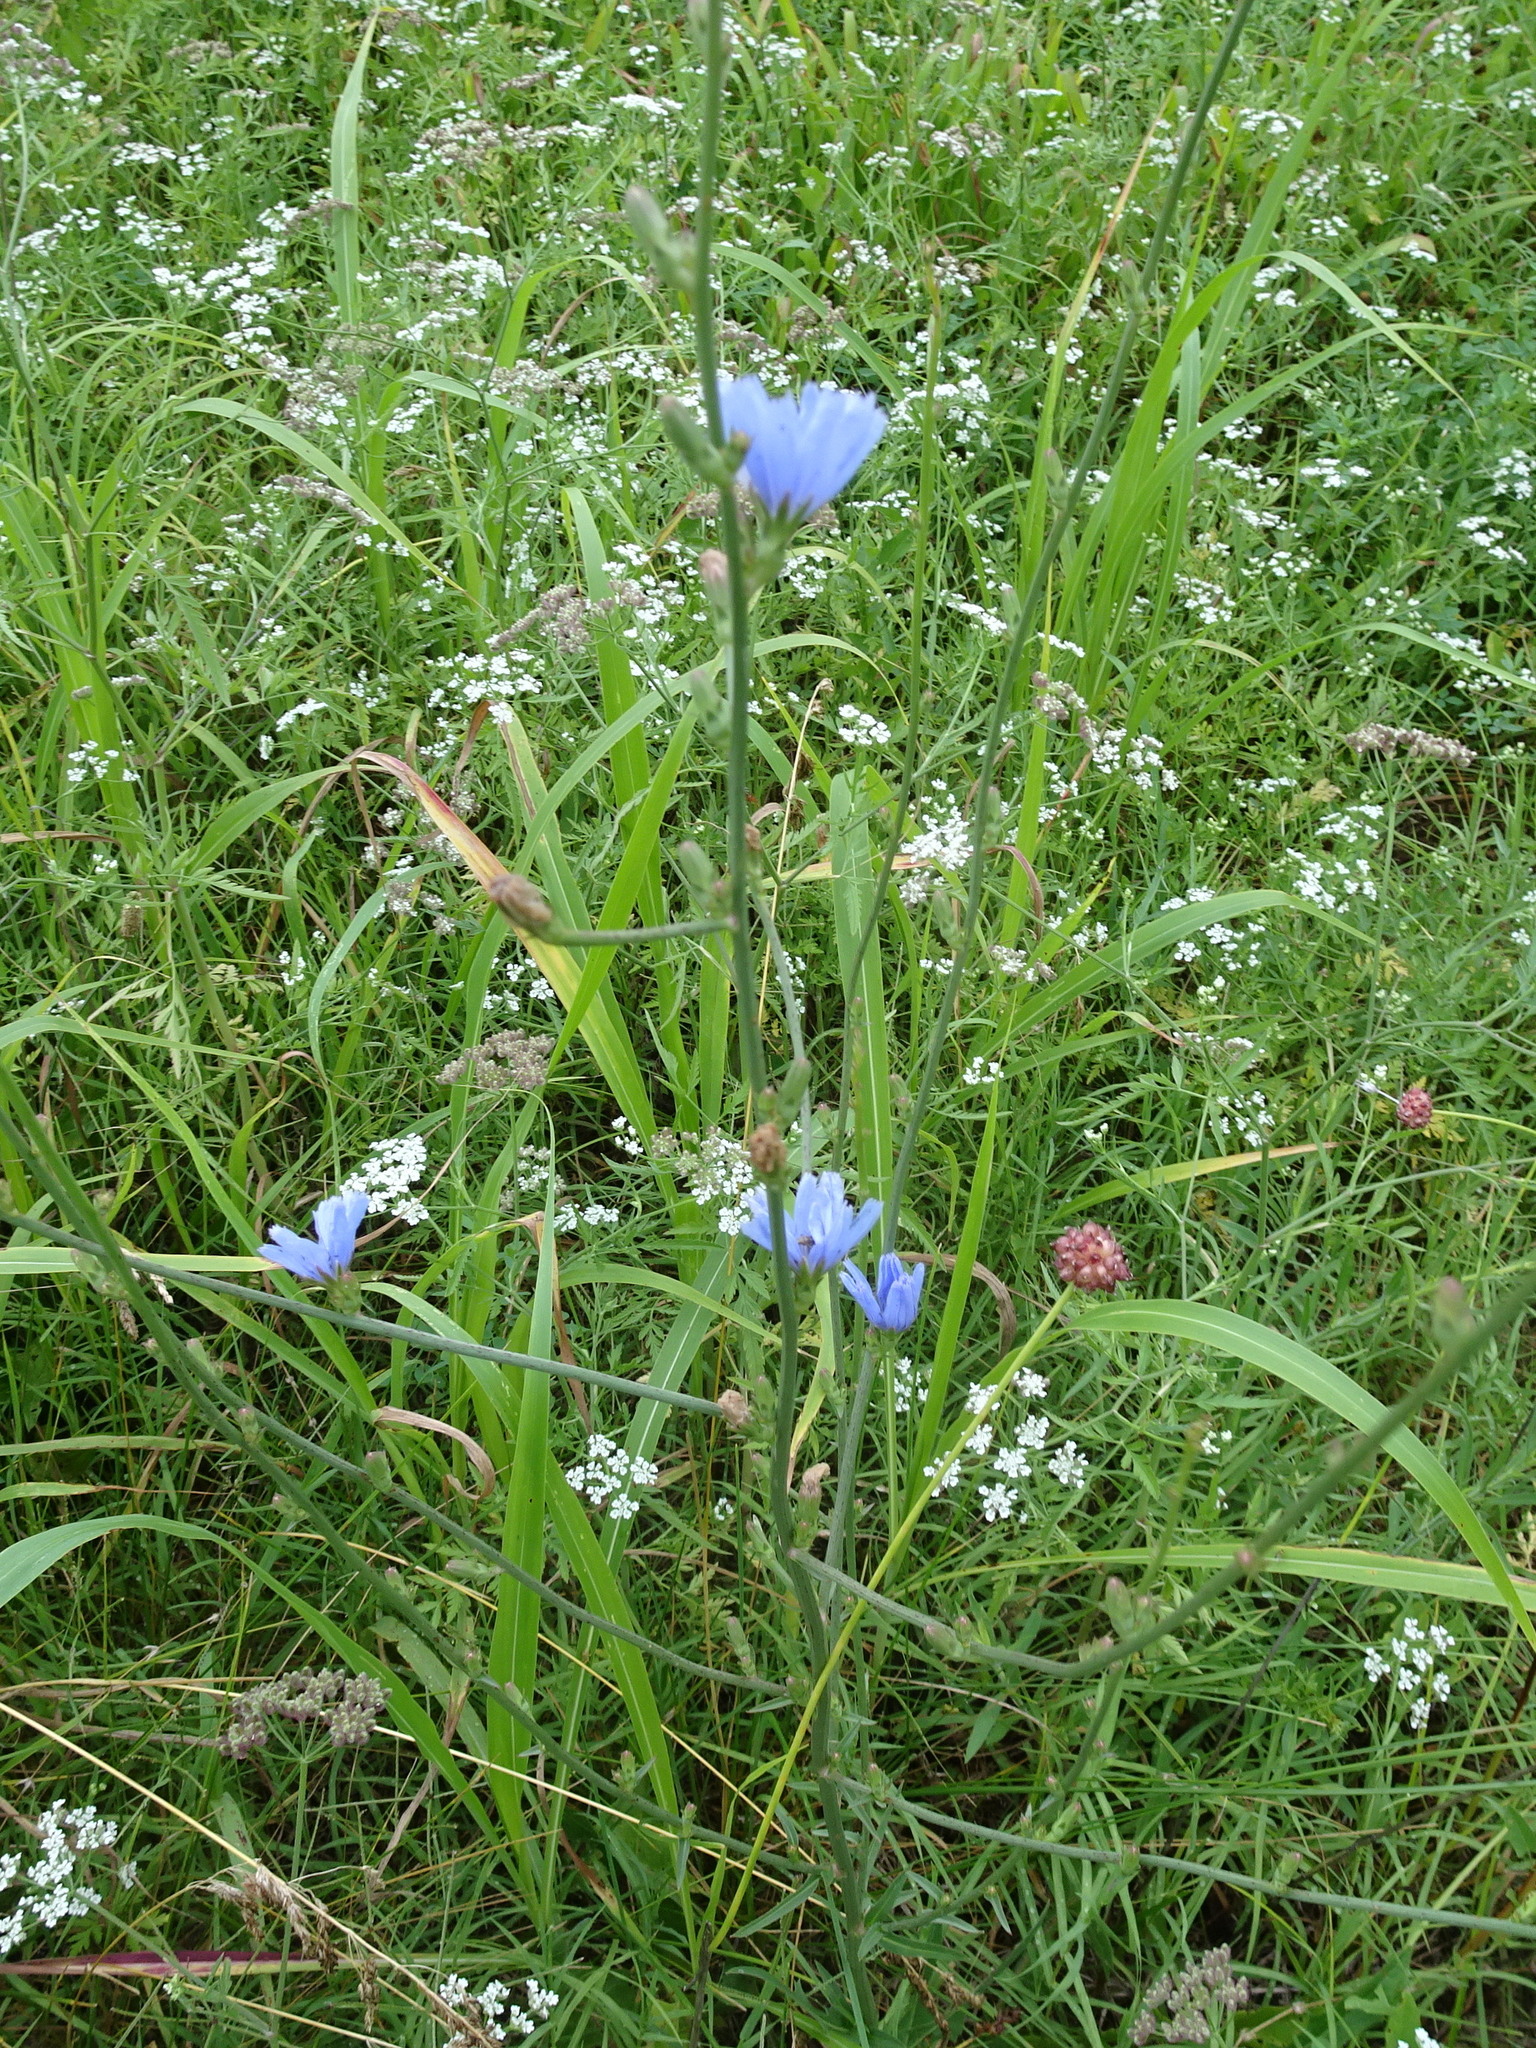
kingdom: Plantae
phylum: Tracheophyta
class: Magnoliopsida
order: Asterales
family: Asteraceae
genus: Cichorium
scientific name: Cichorium intybus
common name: Chicory
